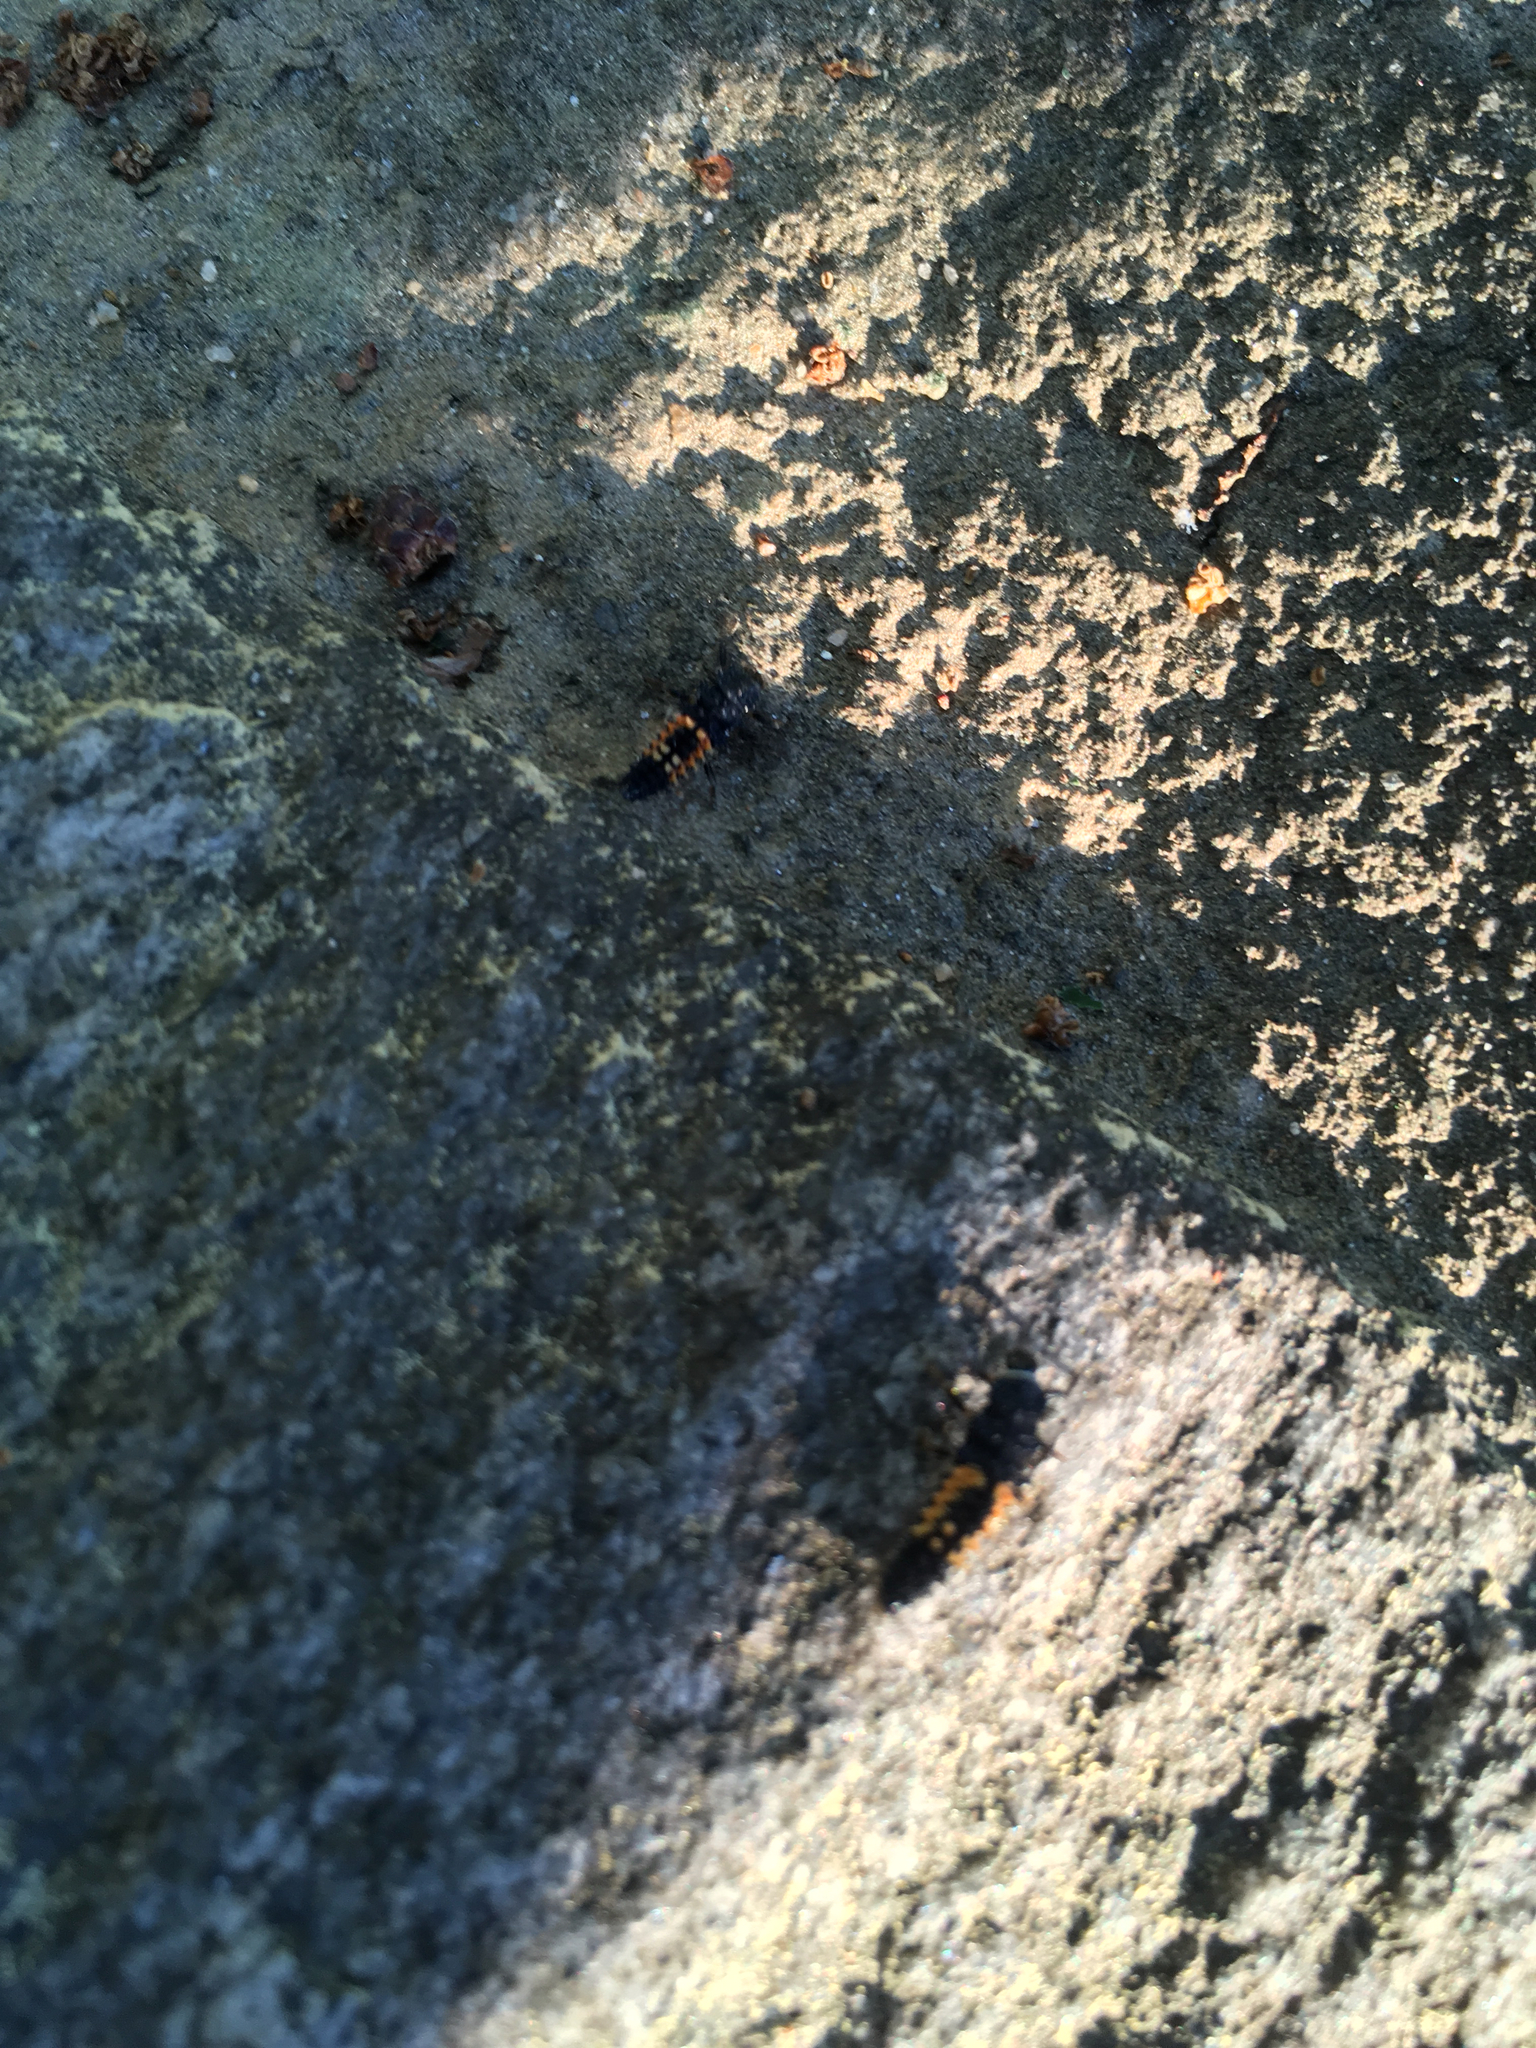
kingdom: Animalia
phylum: Arthropoda
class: Insecta
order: Coleoptera
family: Coccinellidae
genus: Harmonia
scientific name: Harmonia axyridis
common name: Harlequin ladybird
